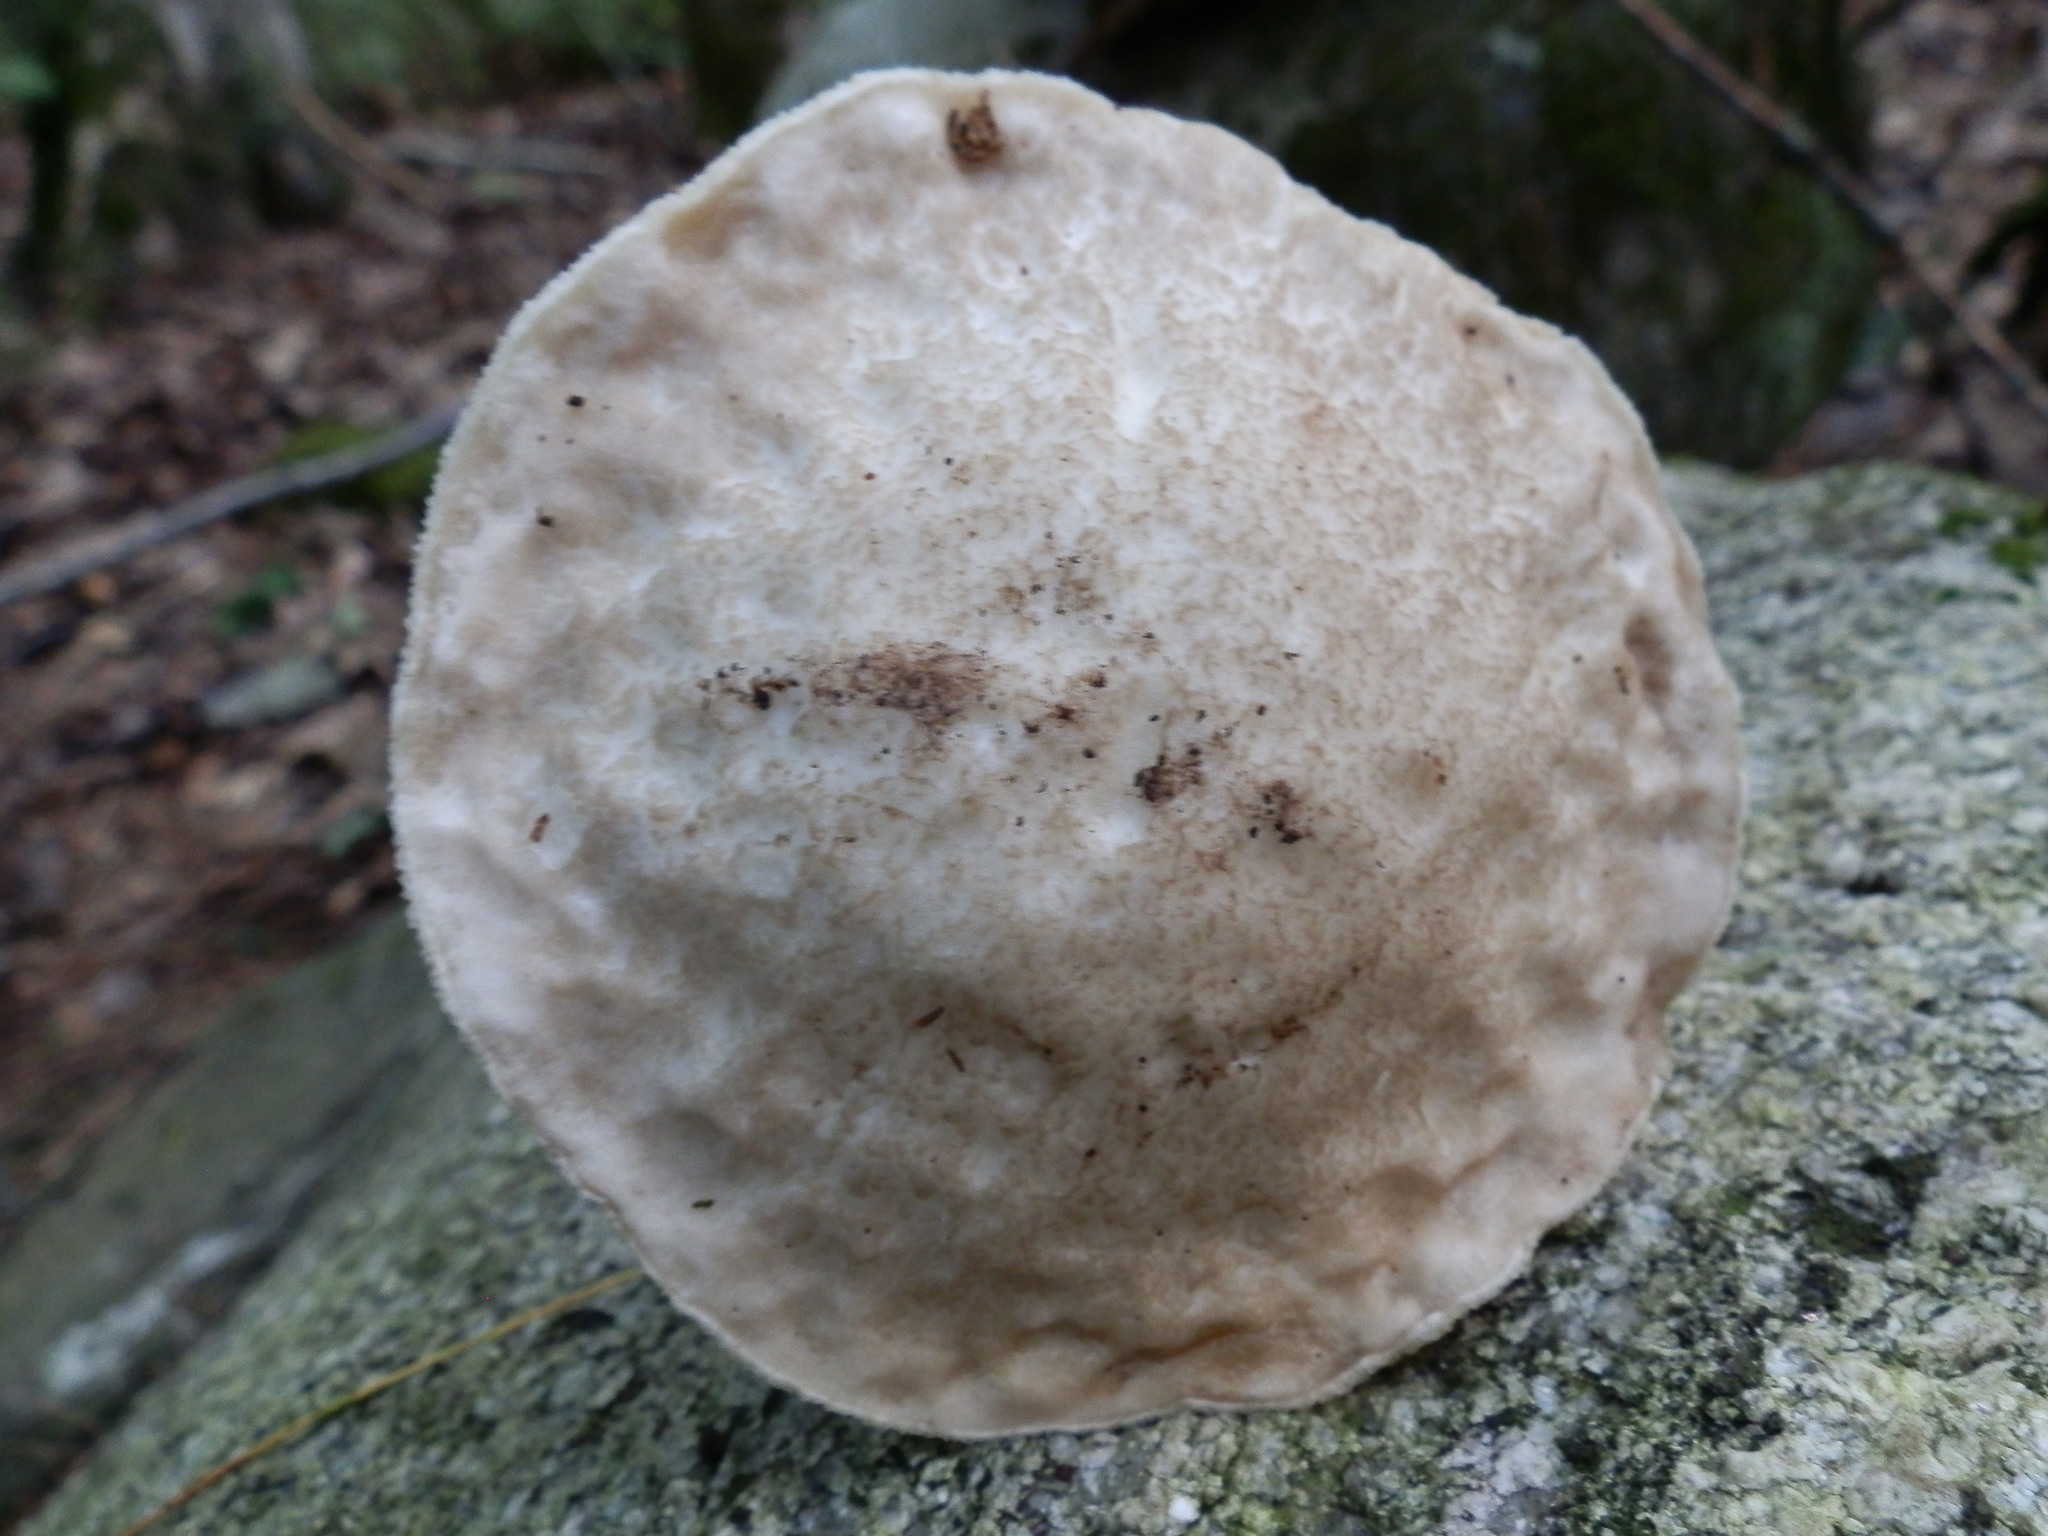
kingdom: Fungi
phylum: Basidiomycota
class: Agaricomycetes
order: Boletales
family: Boletaceae
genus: Leccinellum
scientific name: Leccinellum albellum
